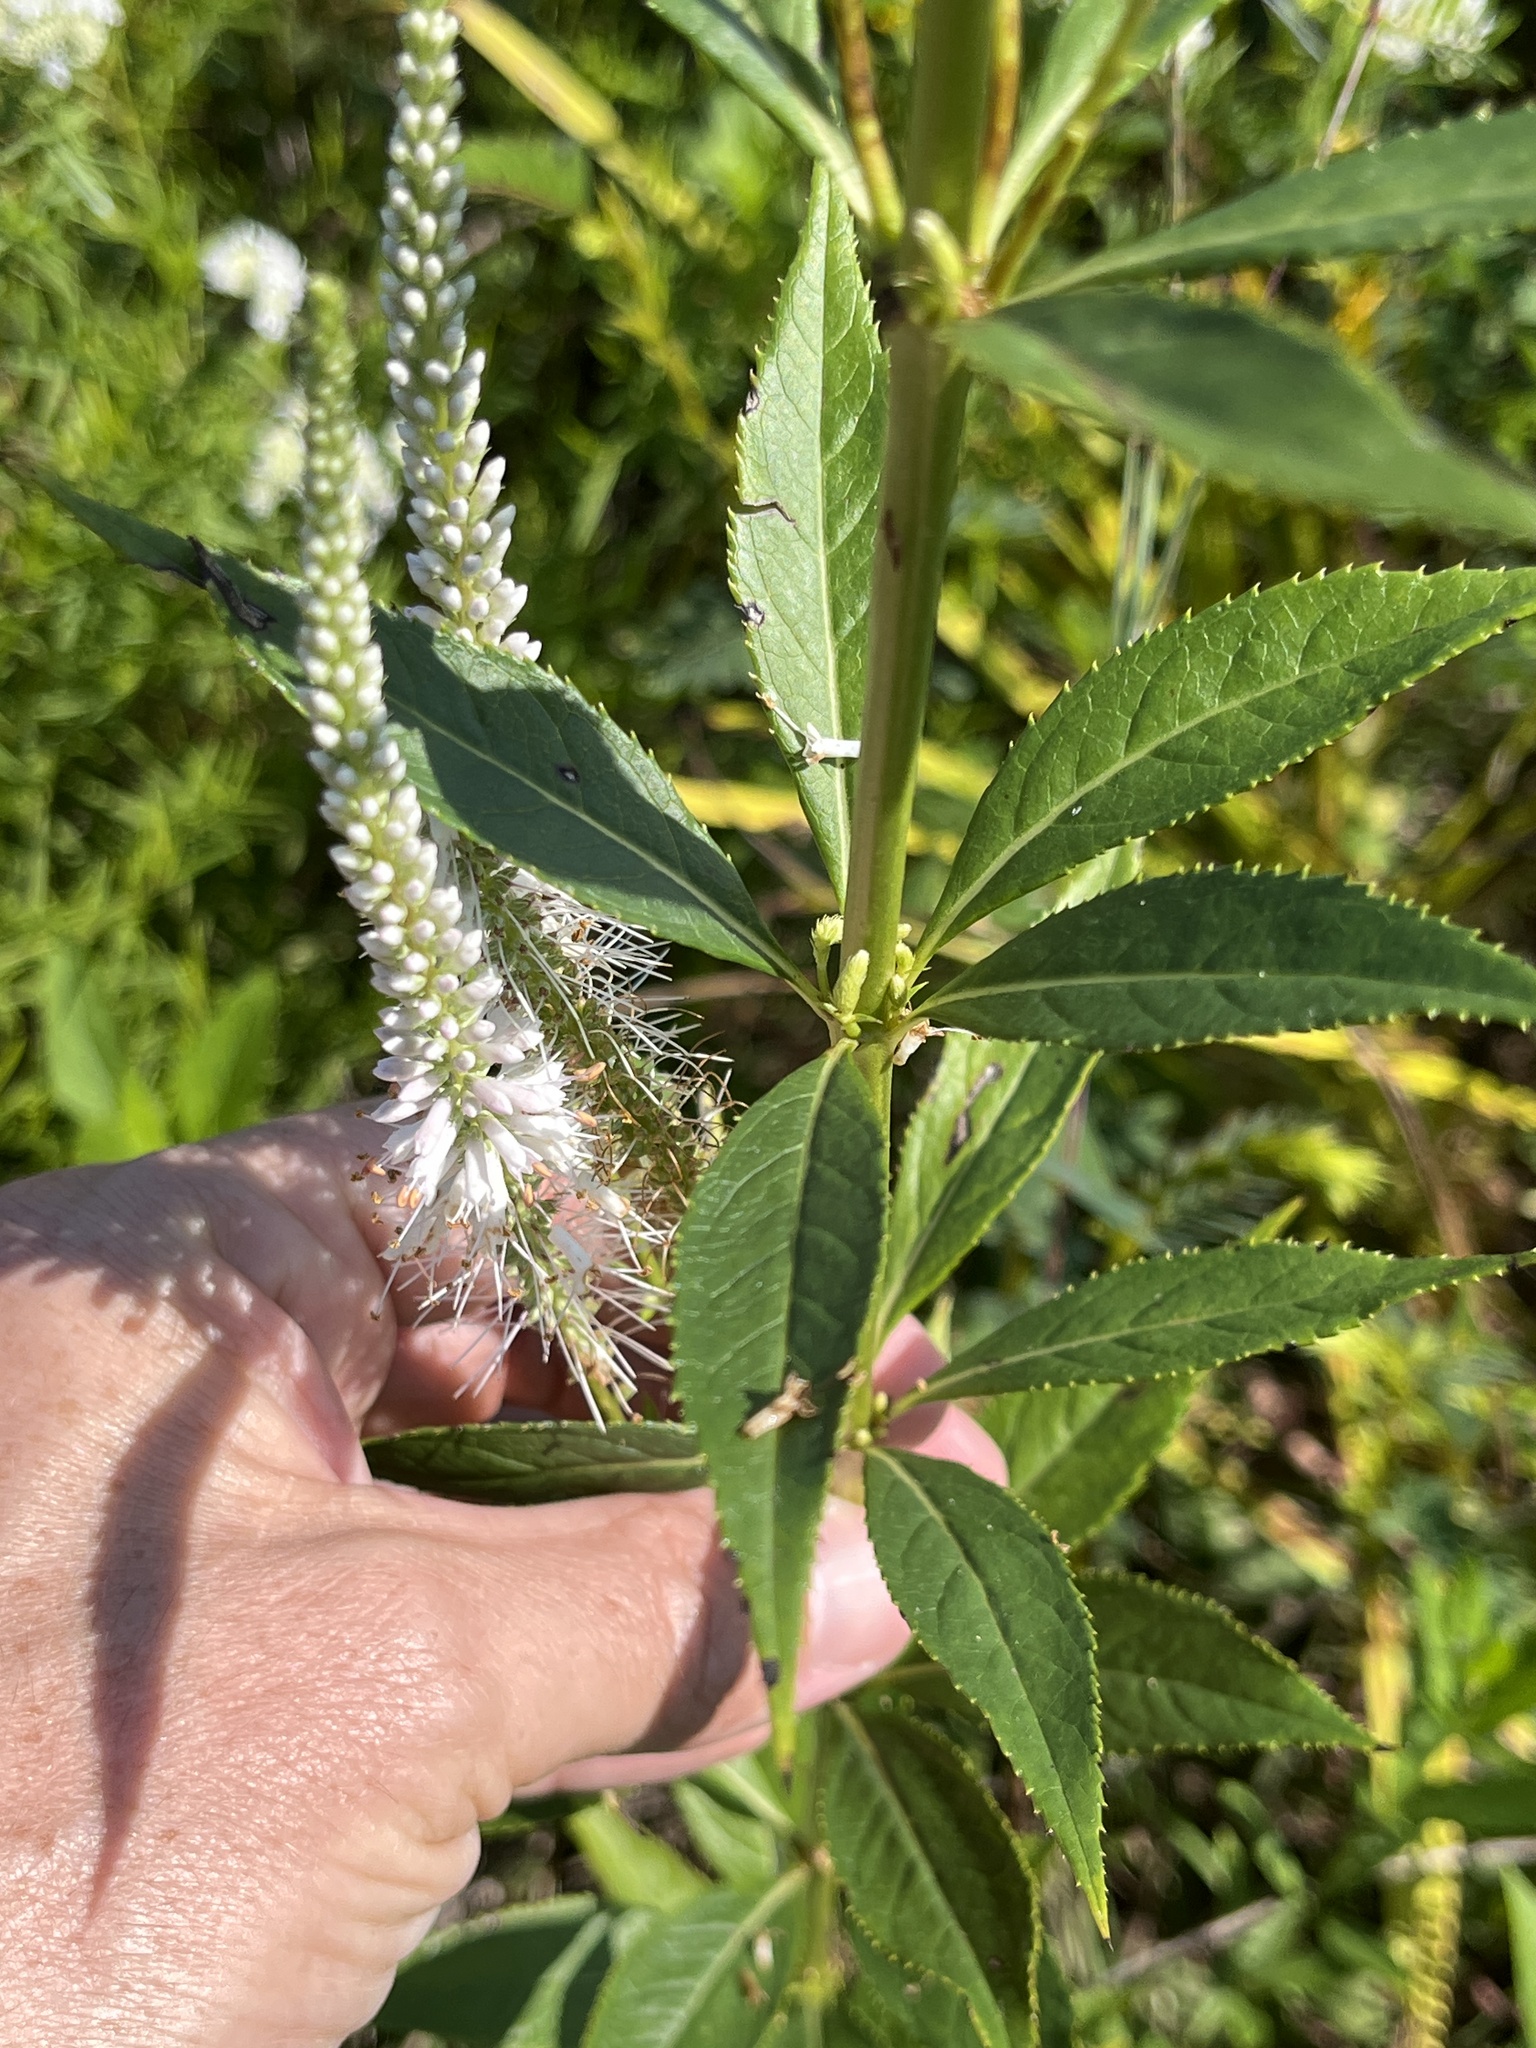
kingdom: Plantae
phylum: Tracheophyta
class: Magnoliopsida
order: Lamiales
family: Plantaginaceae
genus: Veronicastrum
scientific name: Veronicastrum virginicum
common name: Blackroot
